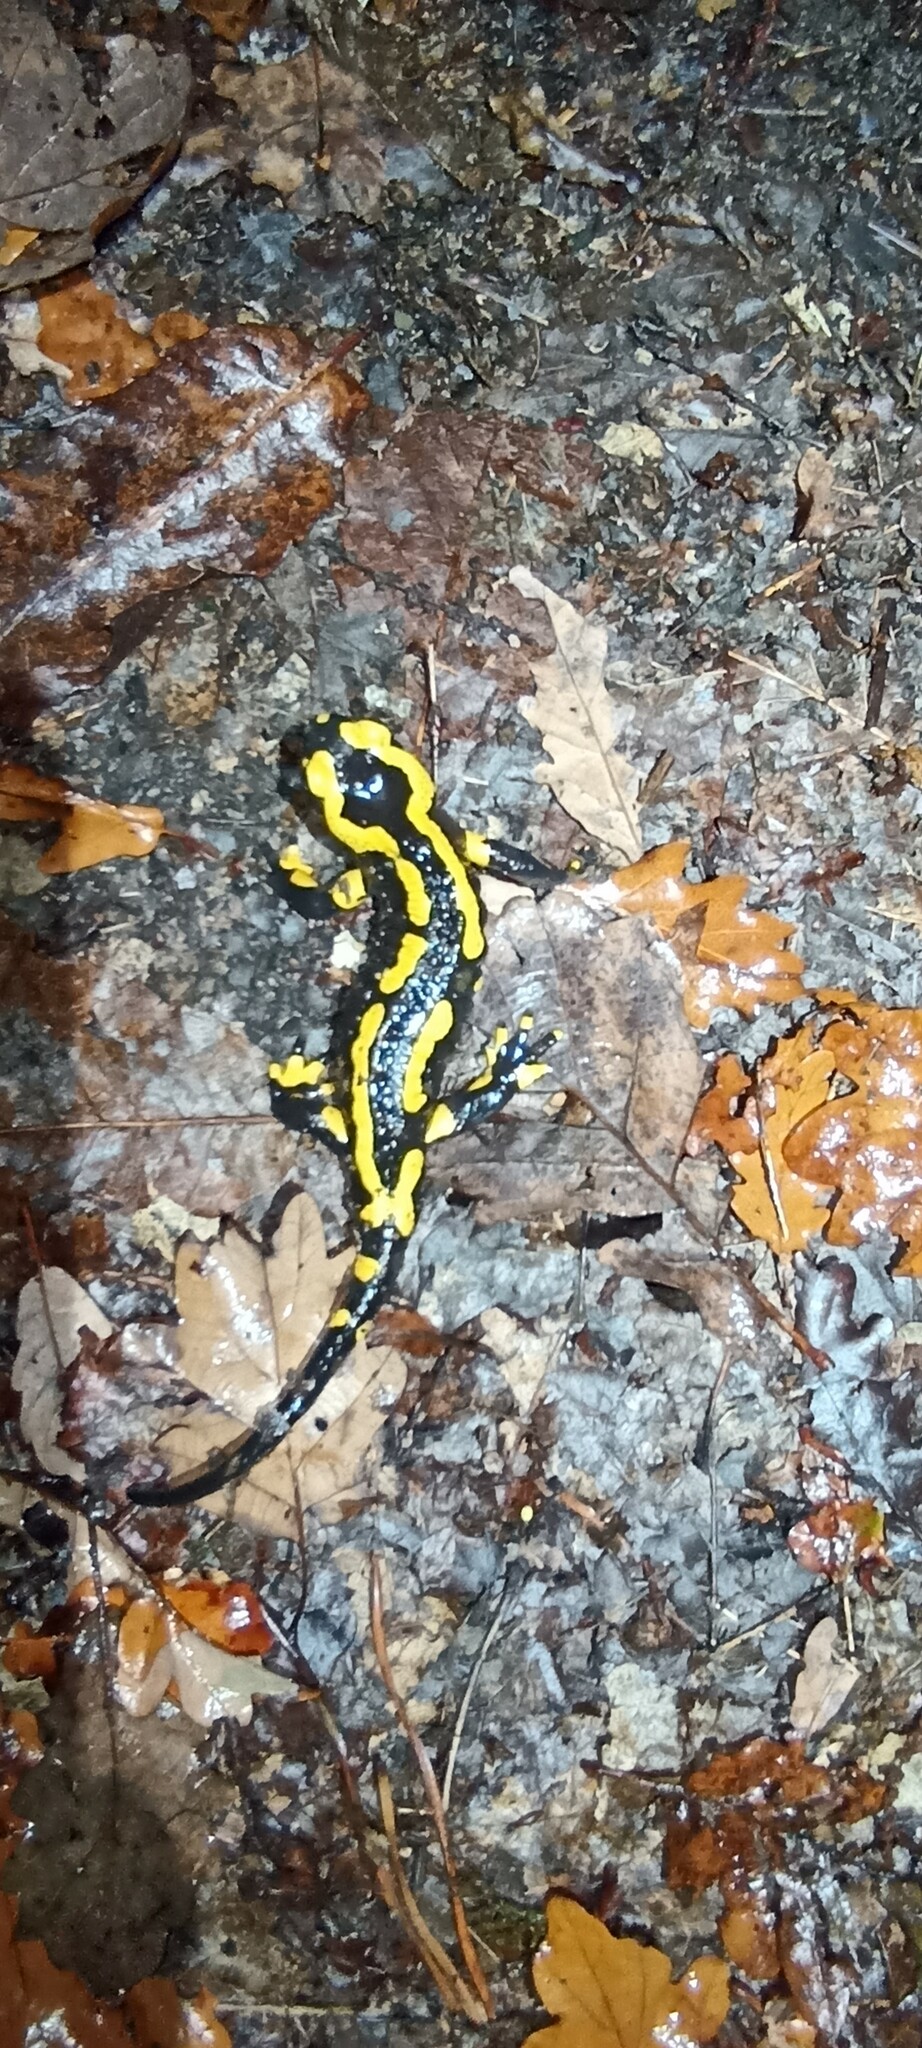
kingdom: Animalia
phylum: Chordata
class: Amphibia
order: Caudata
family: Salamandridae
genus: Salamandra
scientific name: Salamandra salamandra
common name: Fire salamander
